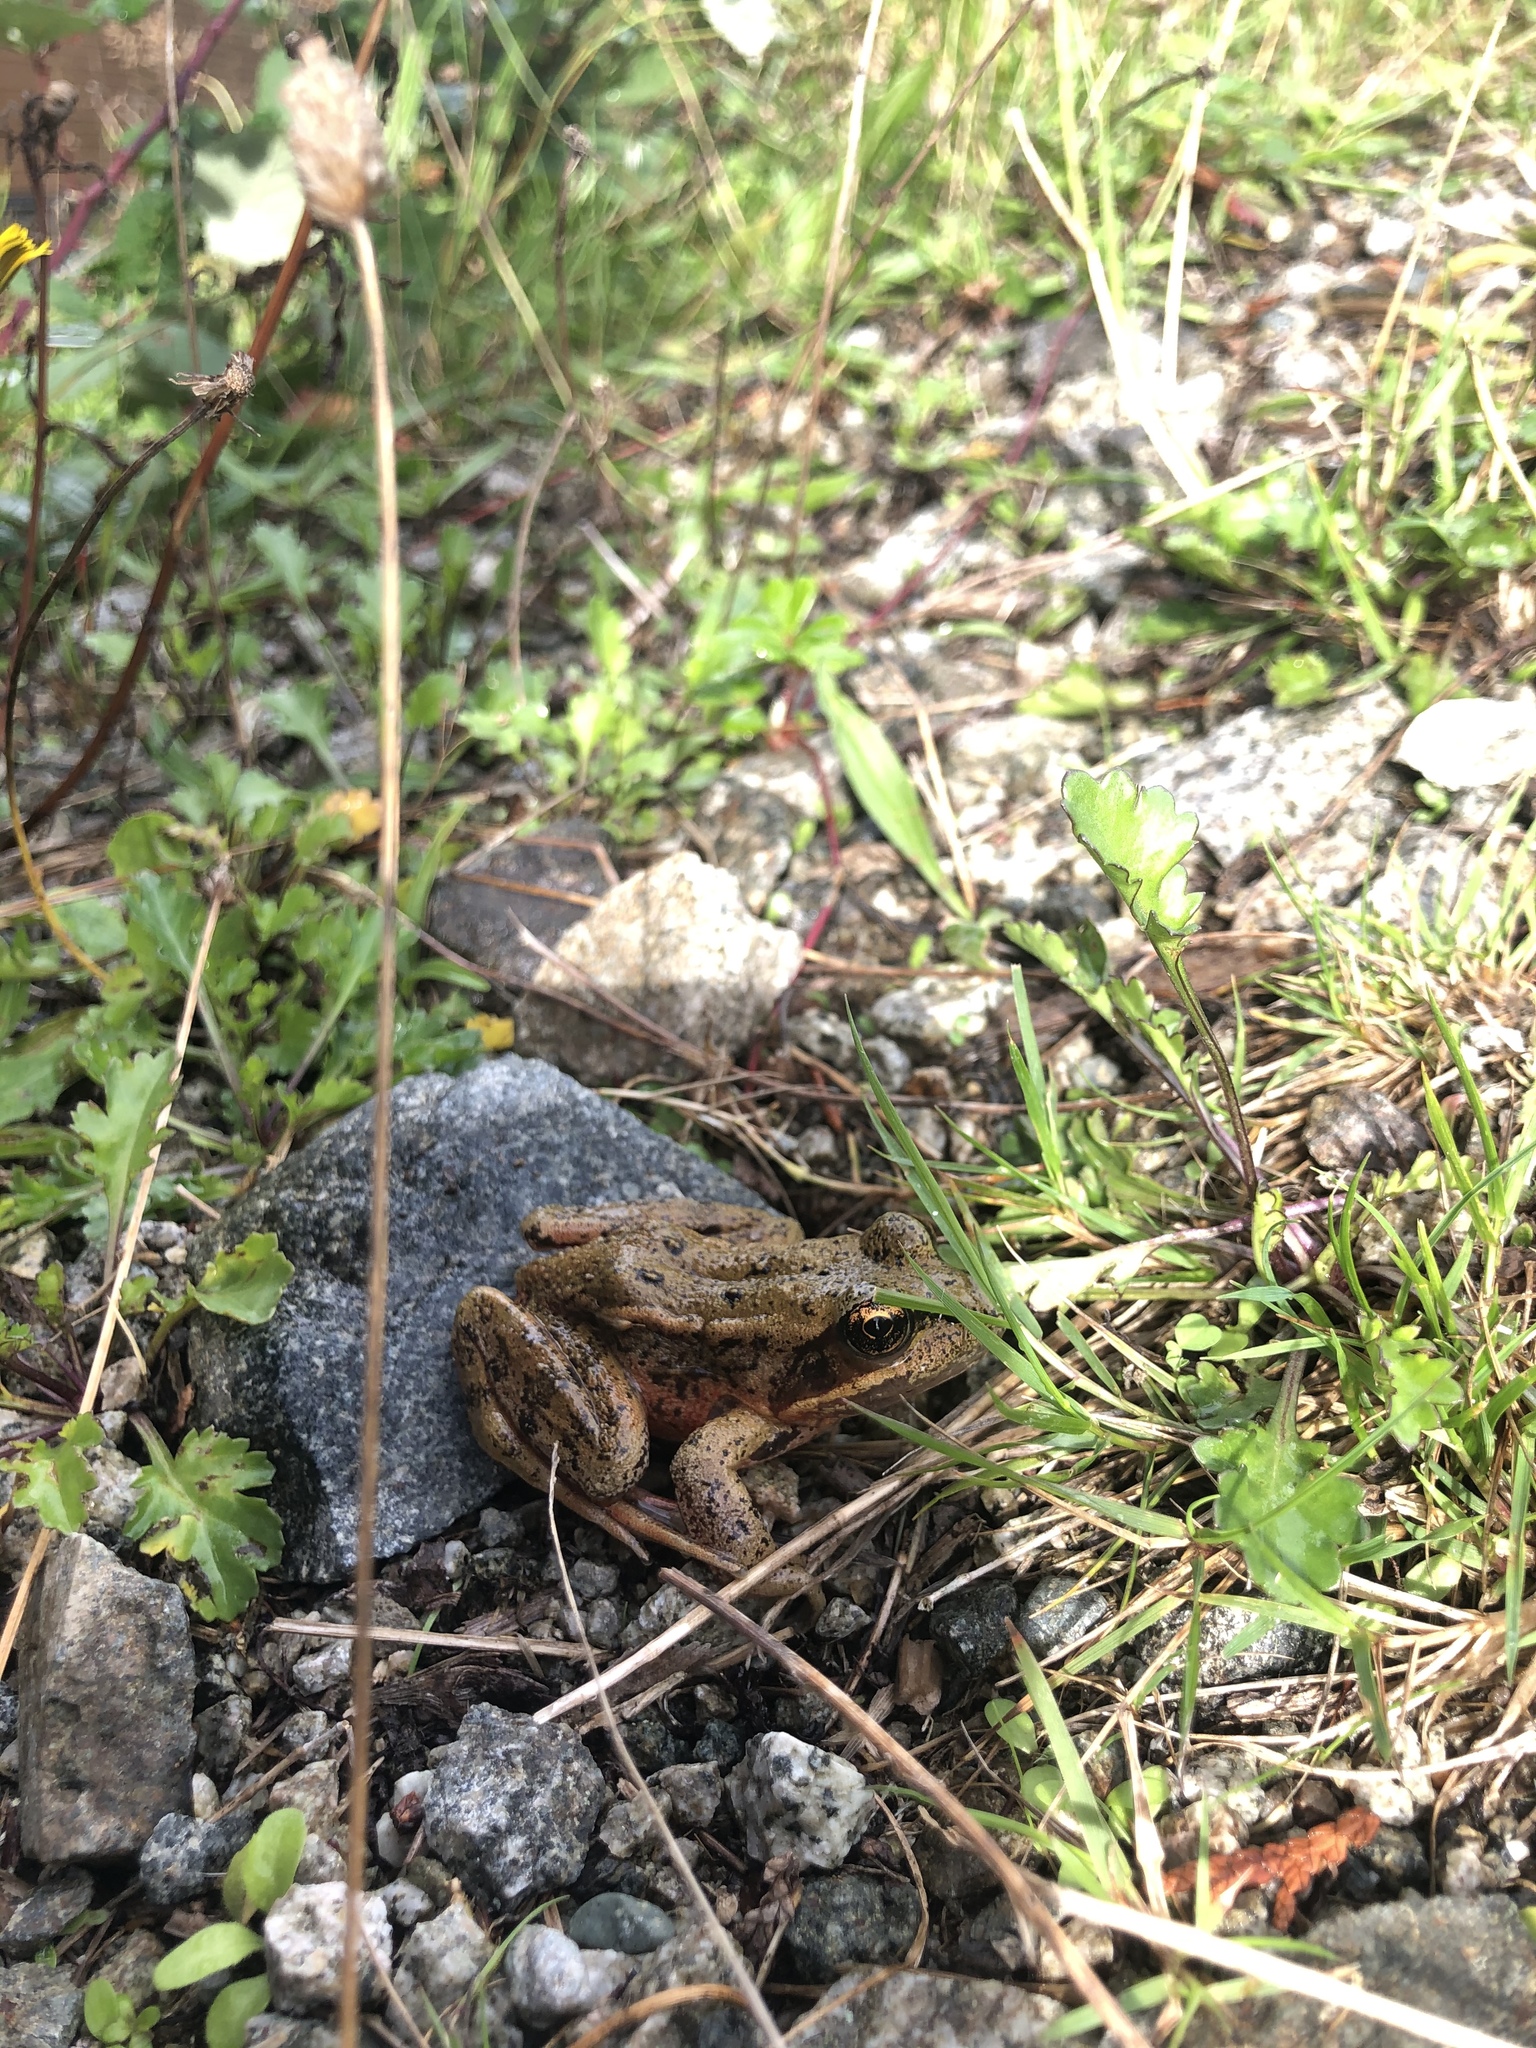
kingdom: Animalia
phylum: Chordata
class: Amphibia
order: Anura
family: Ranidae
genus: Rana
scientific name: Rana aurora
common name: Red-legged frog
